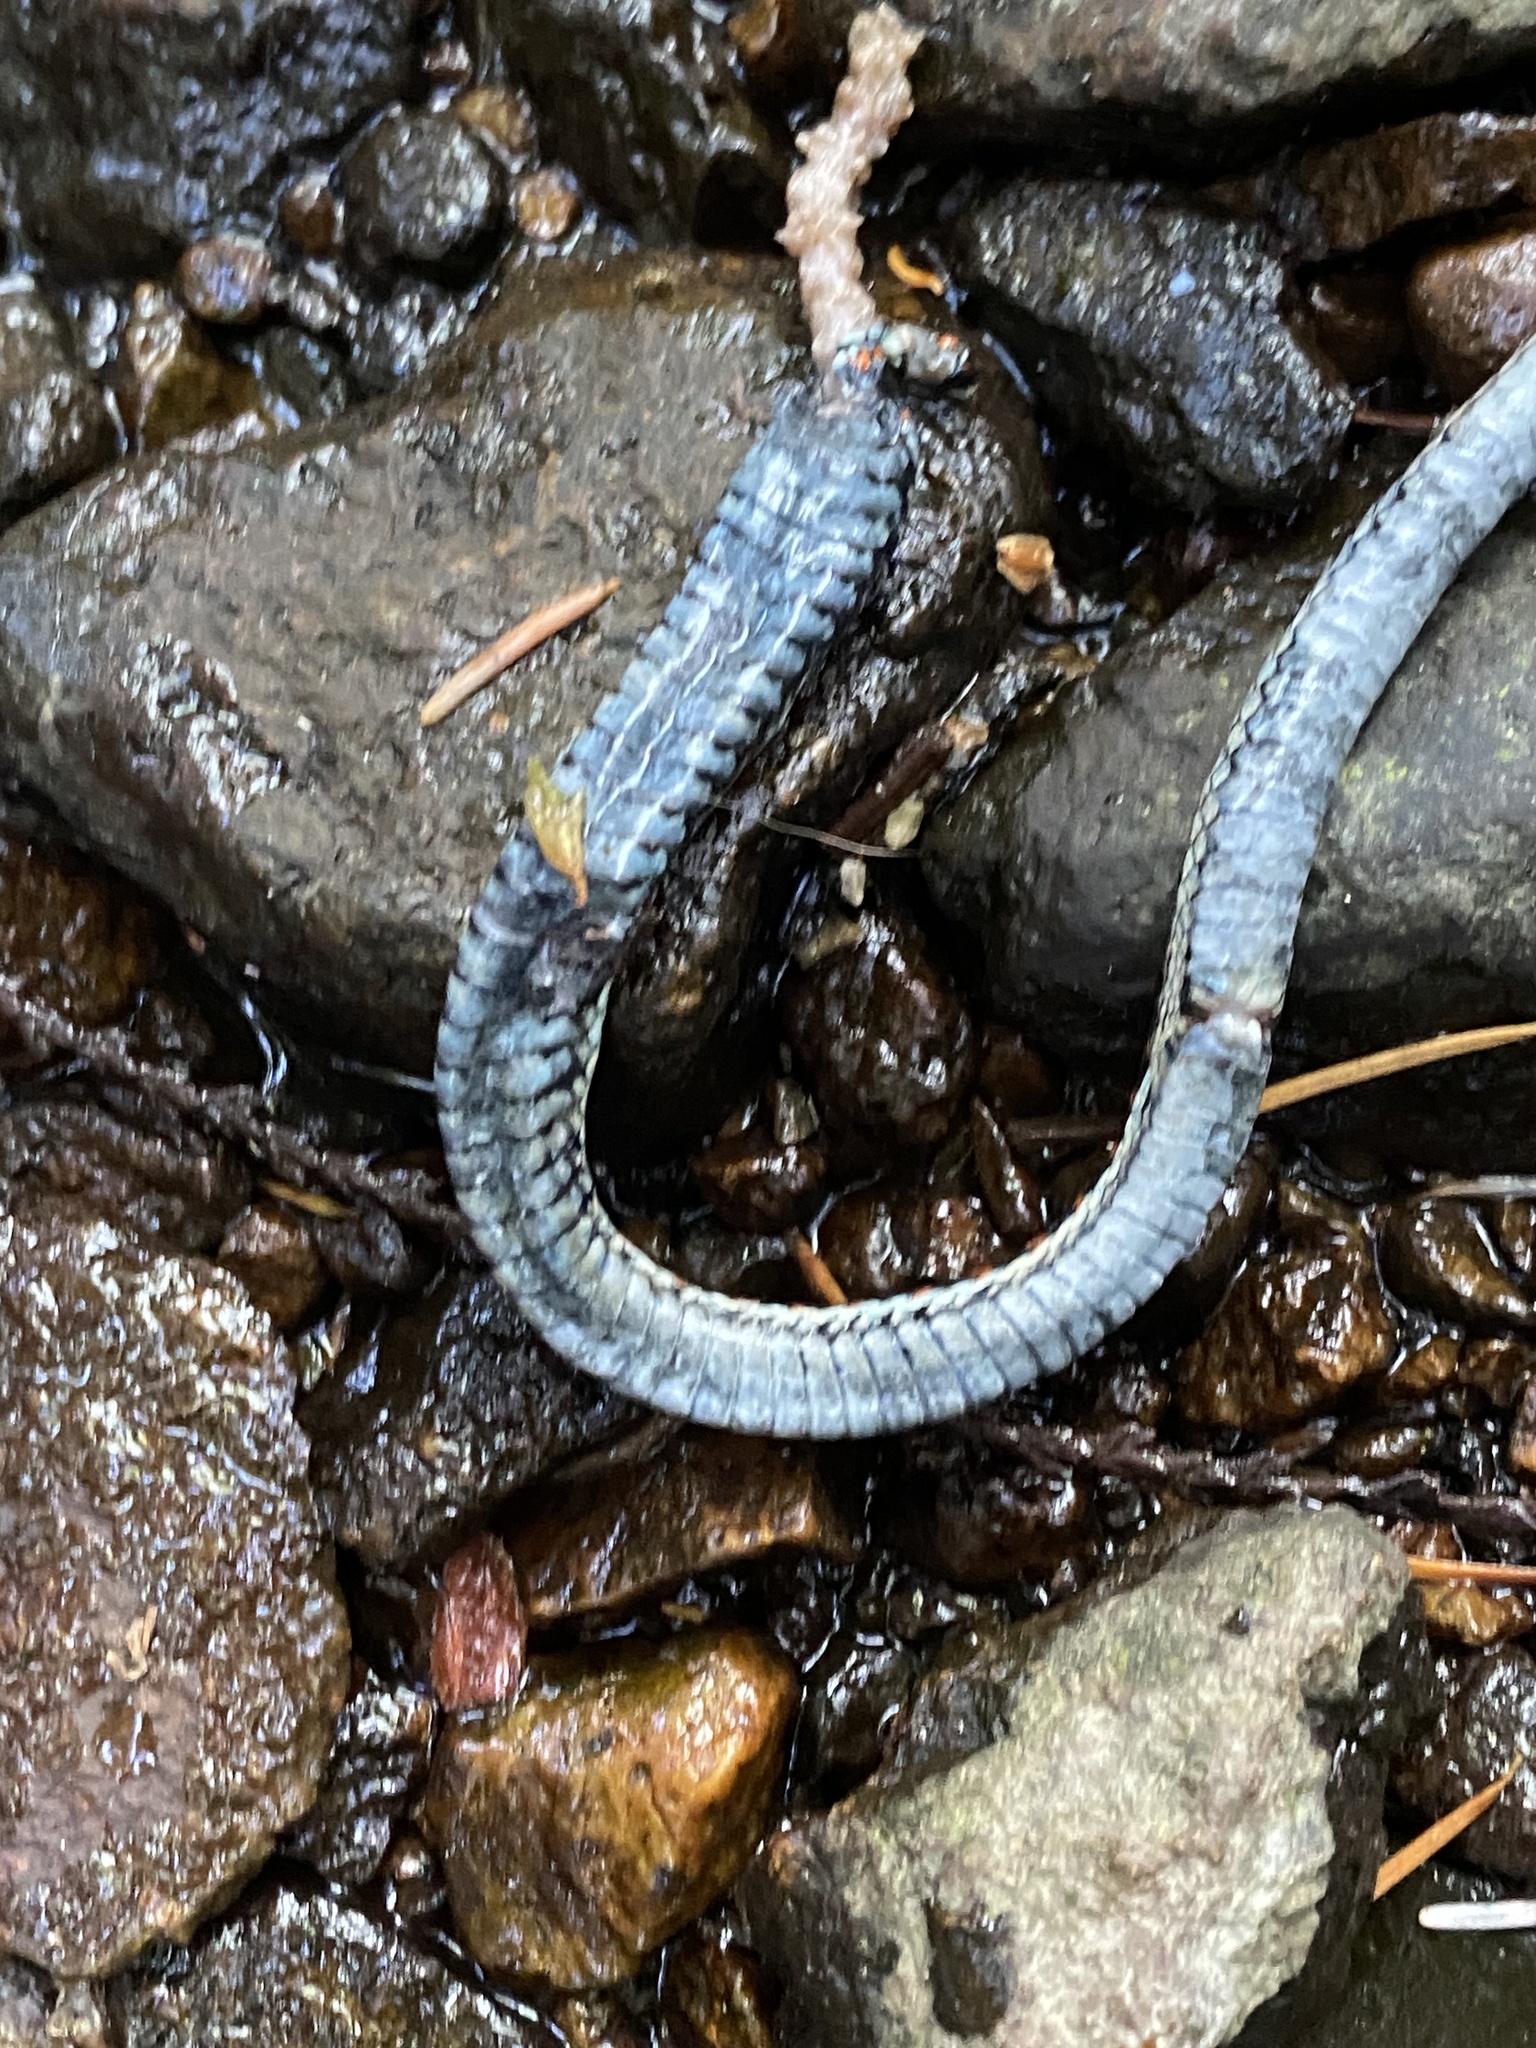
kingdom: Animalia
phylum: Chordata
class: Squamata
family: Colubridae
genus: Thamnophis
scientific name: Thamnophis sirtalis
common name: Common garter snake
